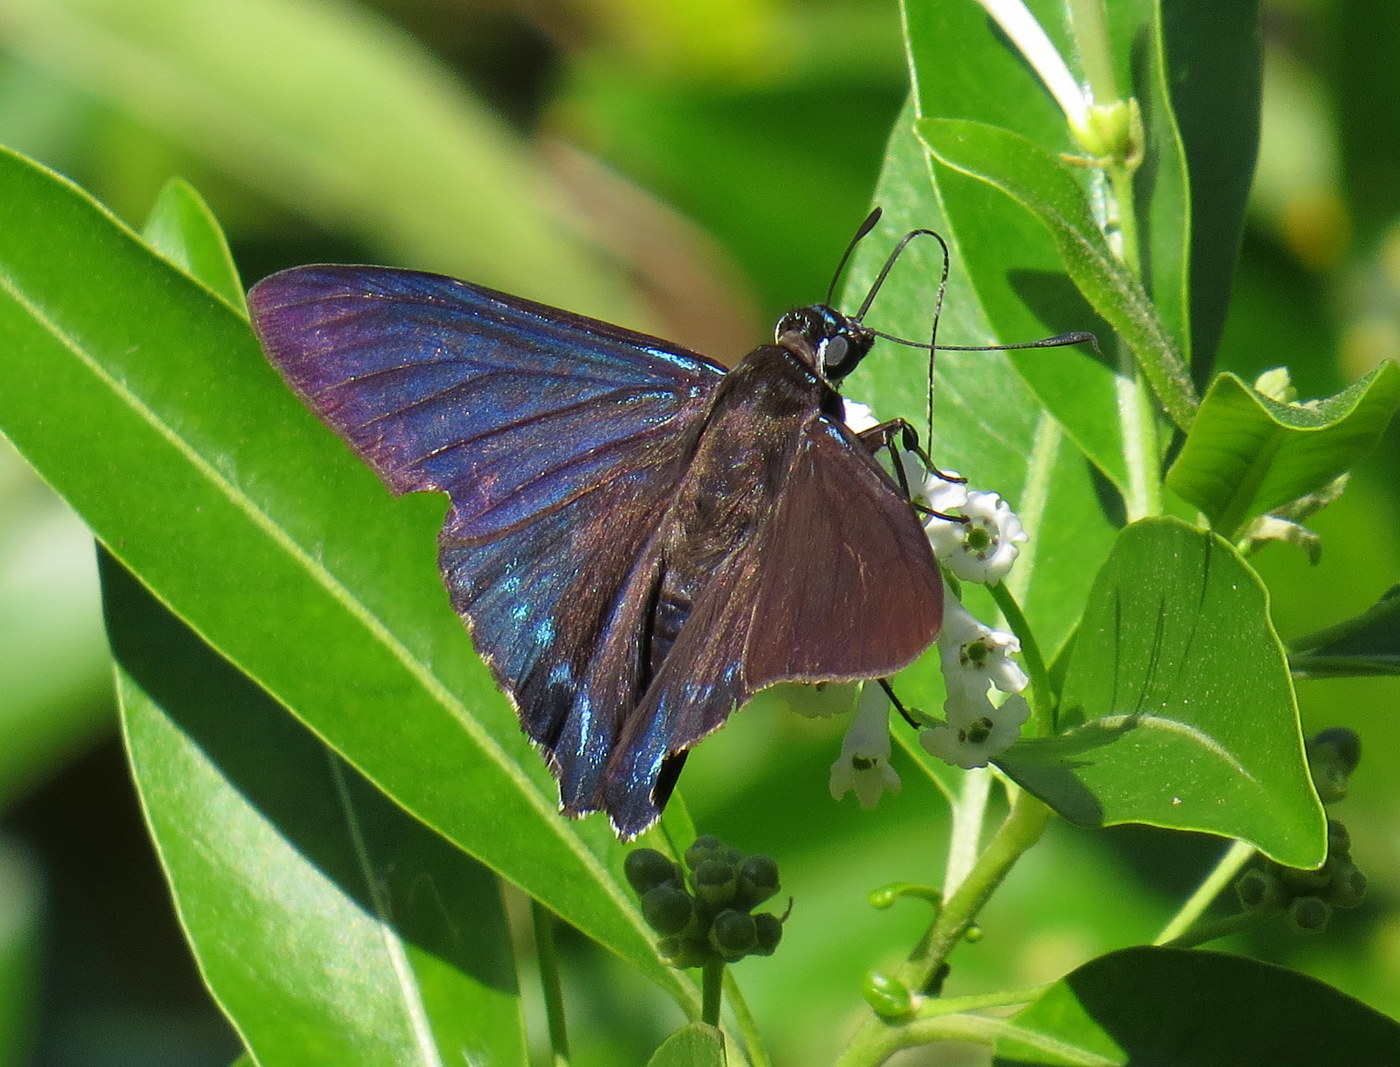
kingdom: Animalia
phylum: Arthropoda
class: Insecta
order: Lepidoptera
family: Hesperiidae
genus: Phocides
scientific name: Phocides pigmalion
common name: Mangrove skipper
